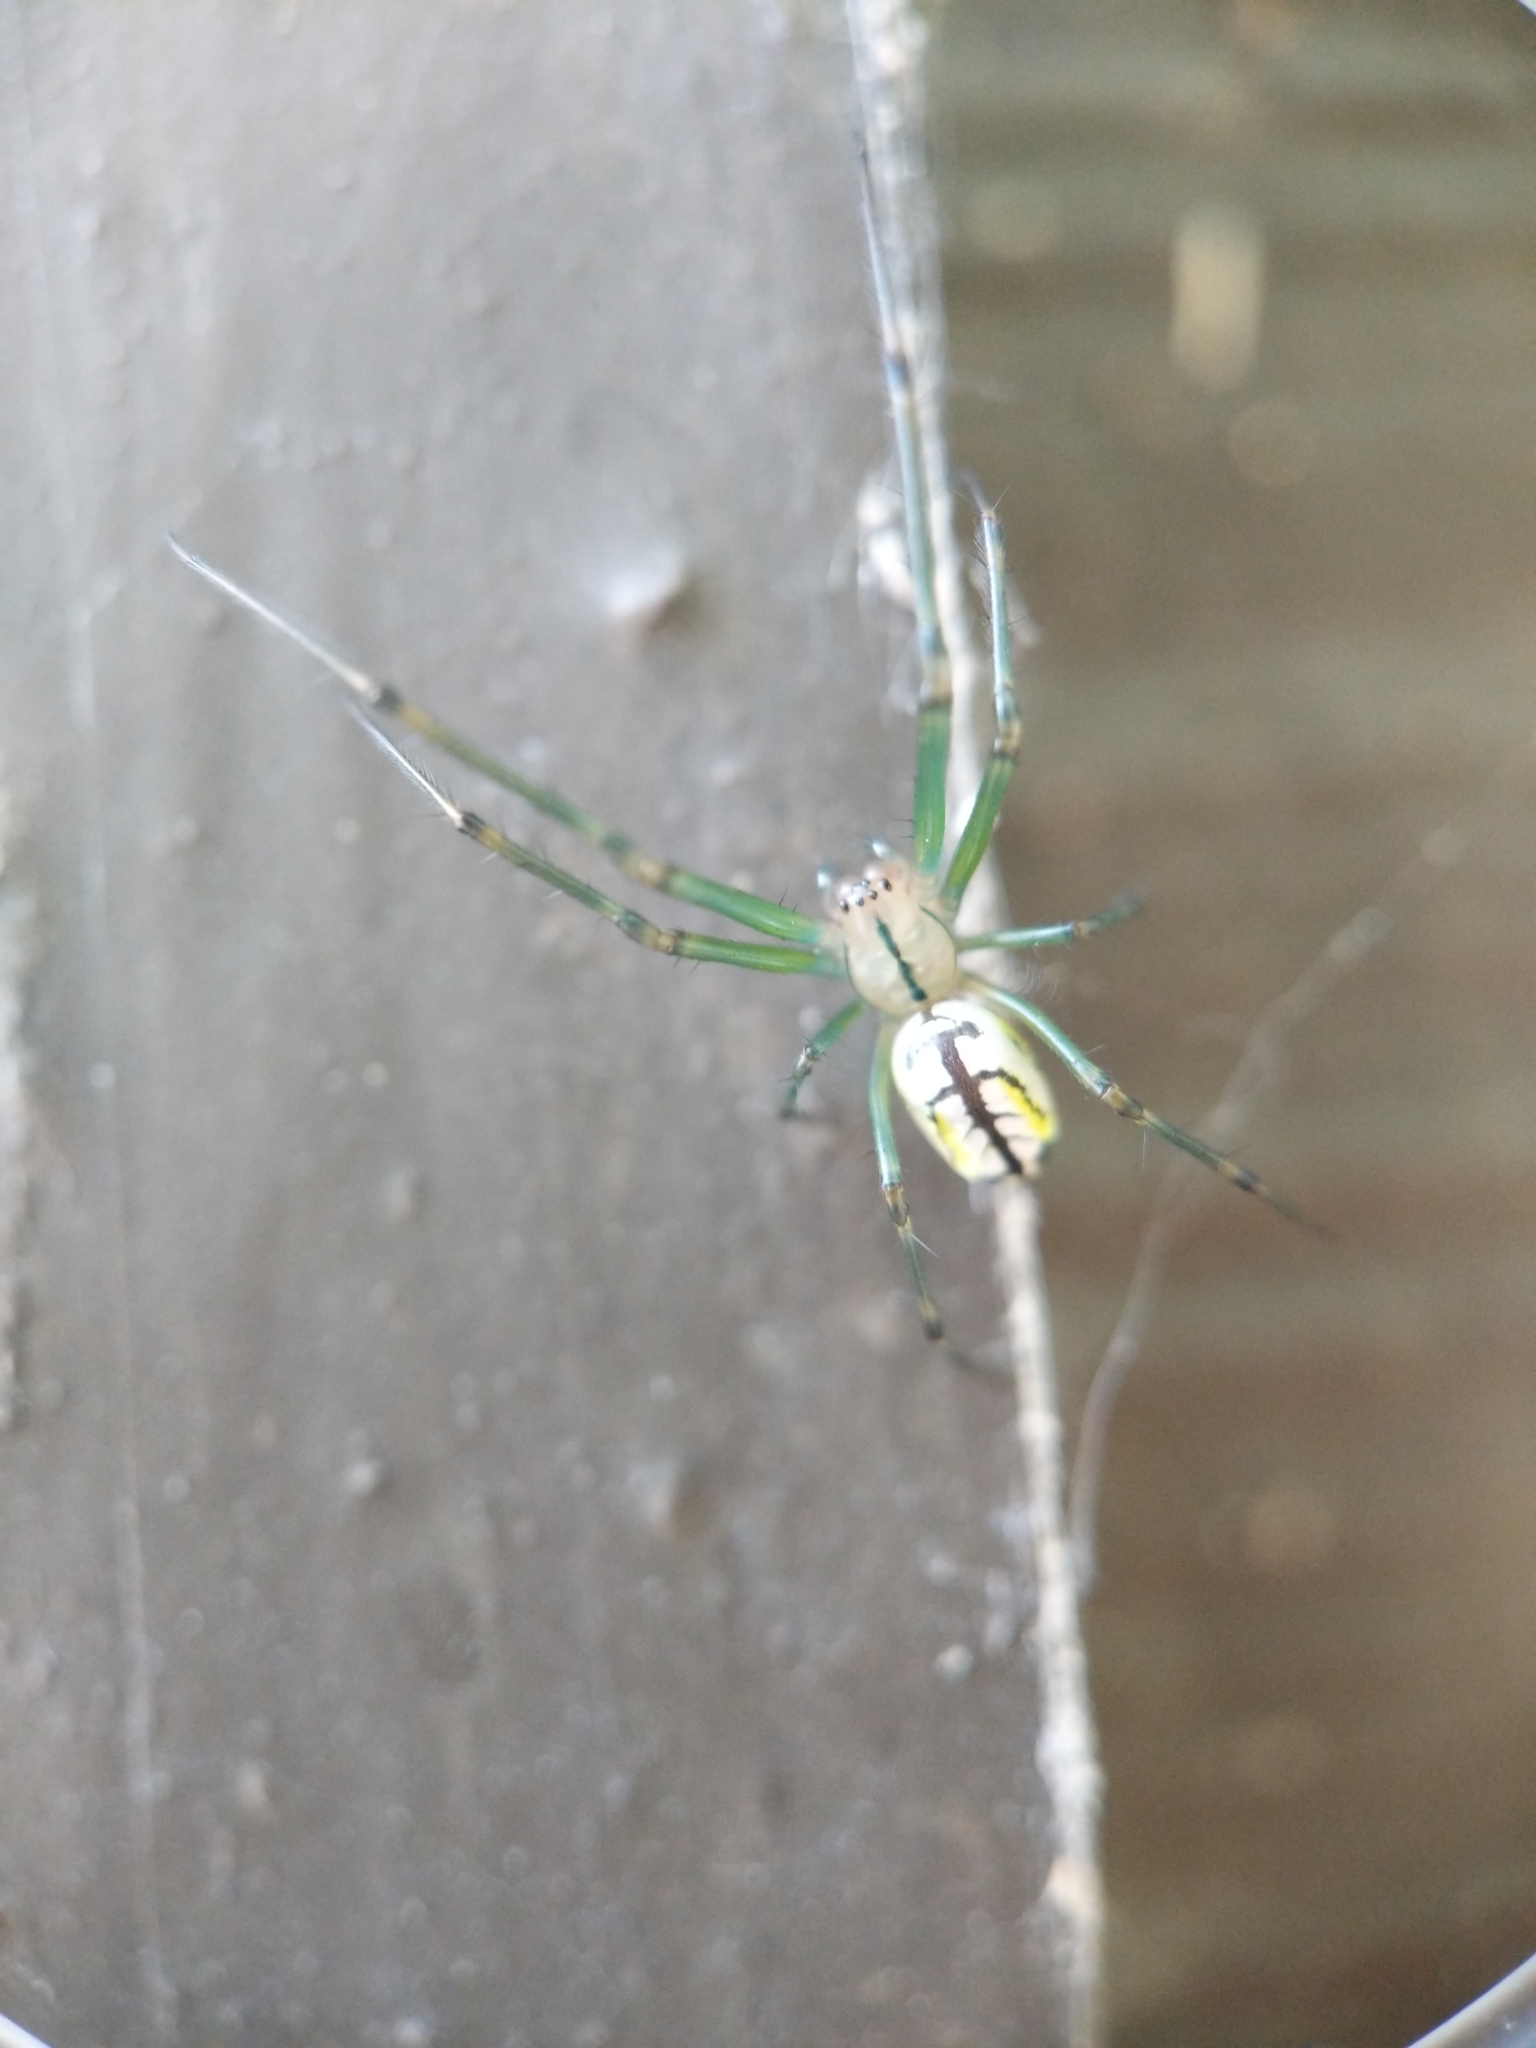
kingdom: Animalia
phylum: Arthropoda
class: Arachnida
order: Araneae
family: Tetragnathidae
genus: Leucauge
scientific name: Leucauge venusta
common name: Longjawed orb weavers
